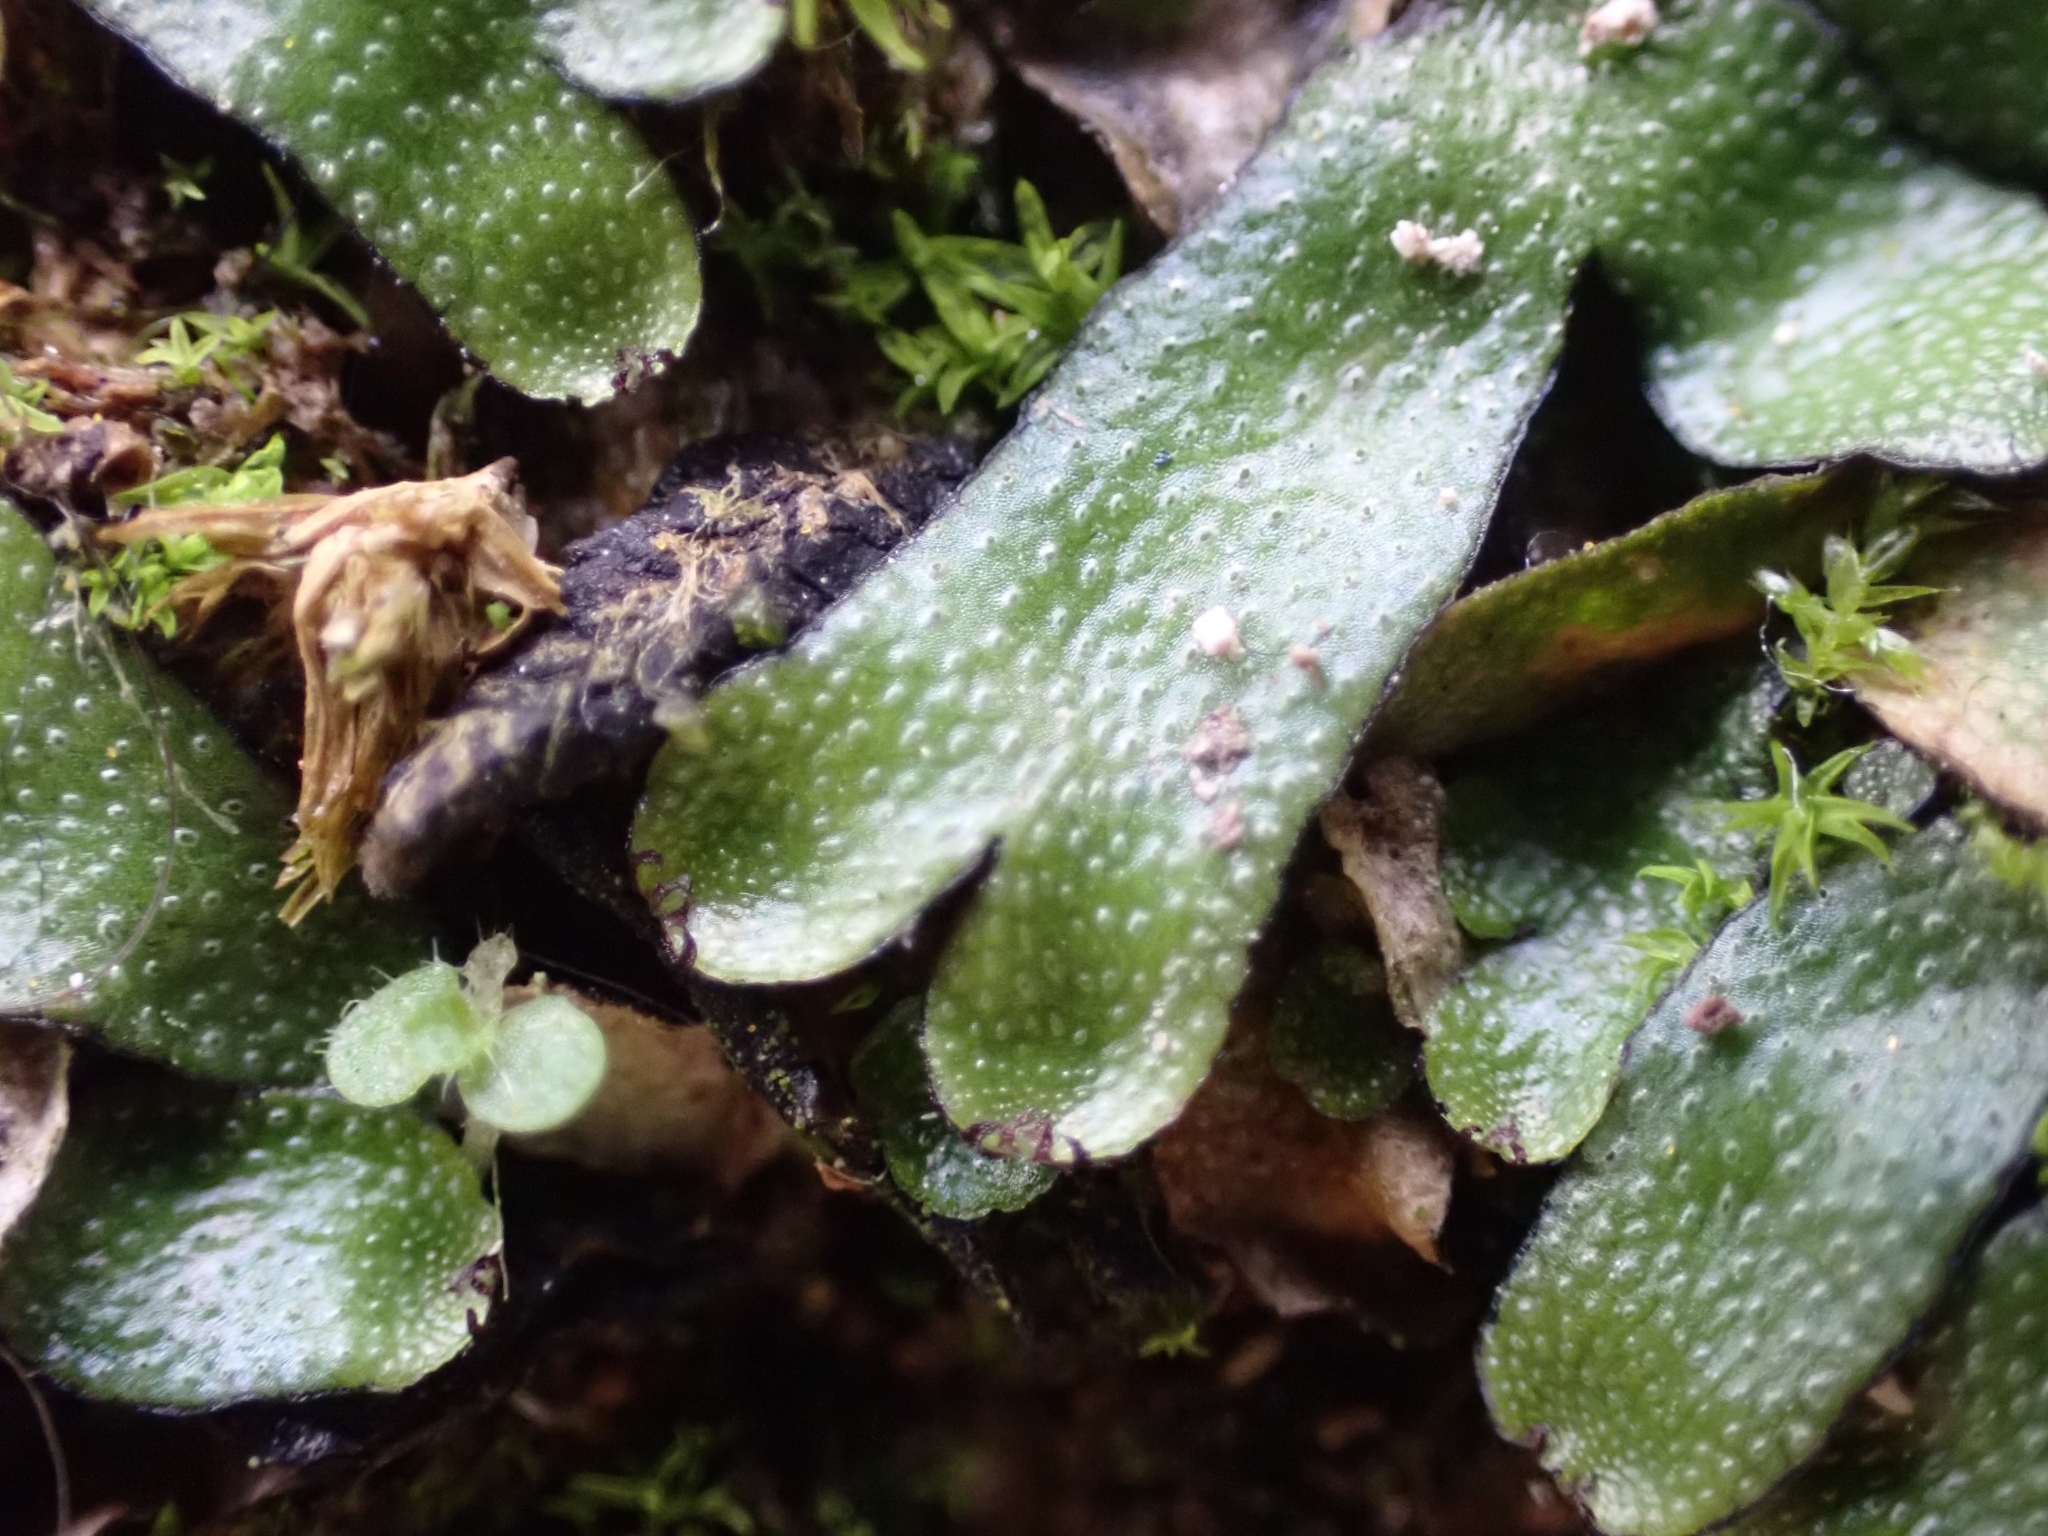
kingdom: Plantae
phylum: Marchantiophyta
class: Marchantiopsida
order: Marchantiales
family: Targioniaceae
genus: Targionia
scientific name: Targionia hypophylla
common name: Orobus-seed liverwort
